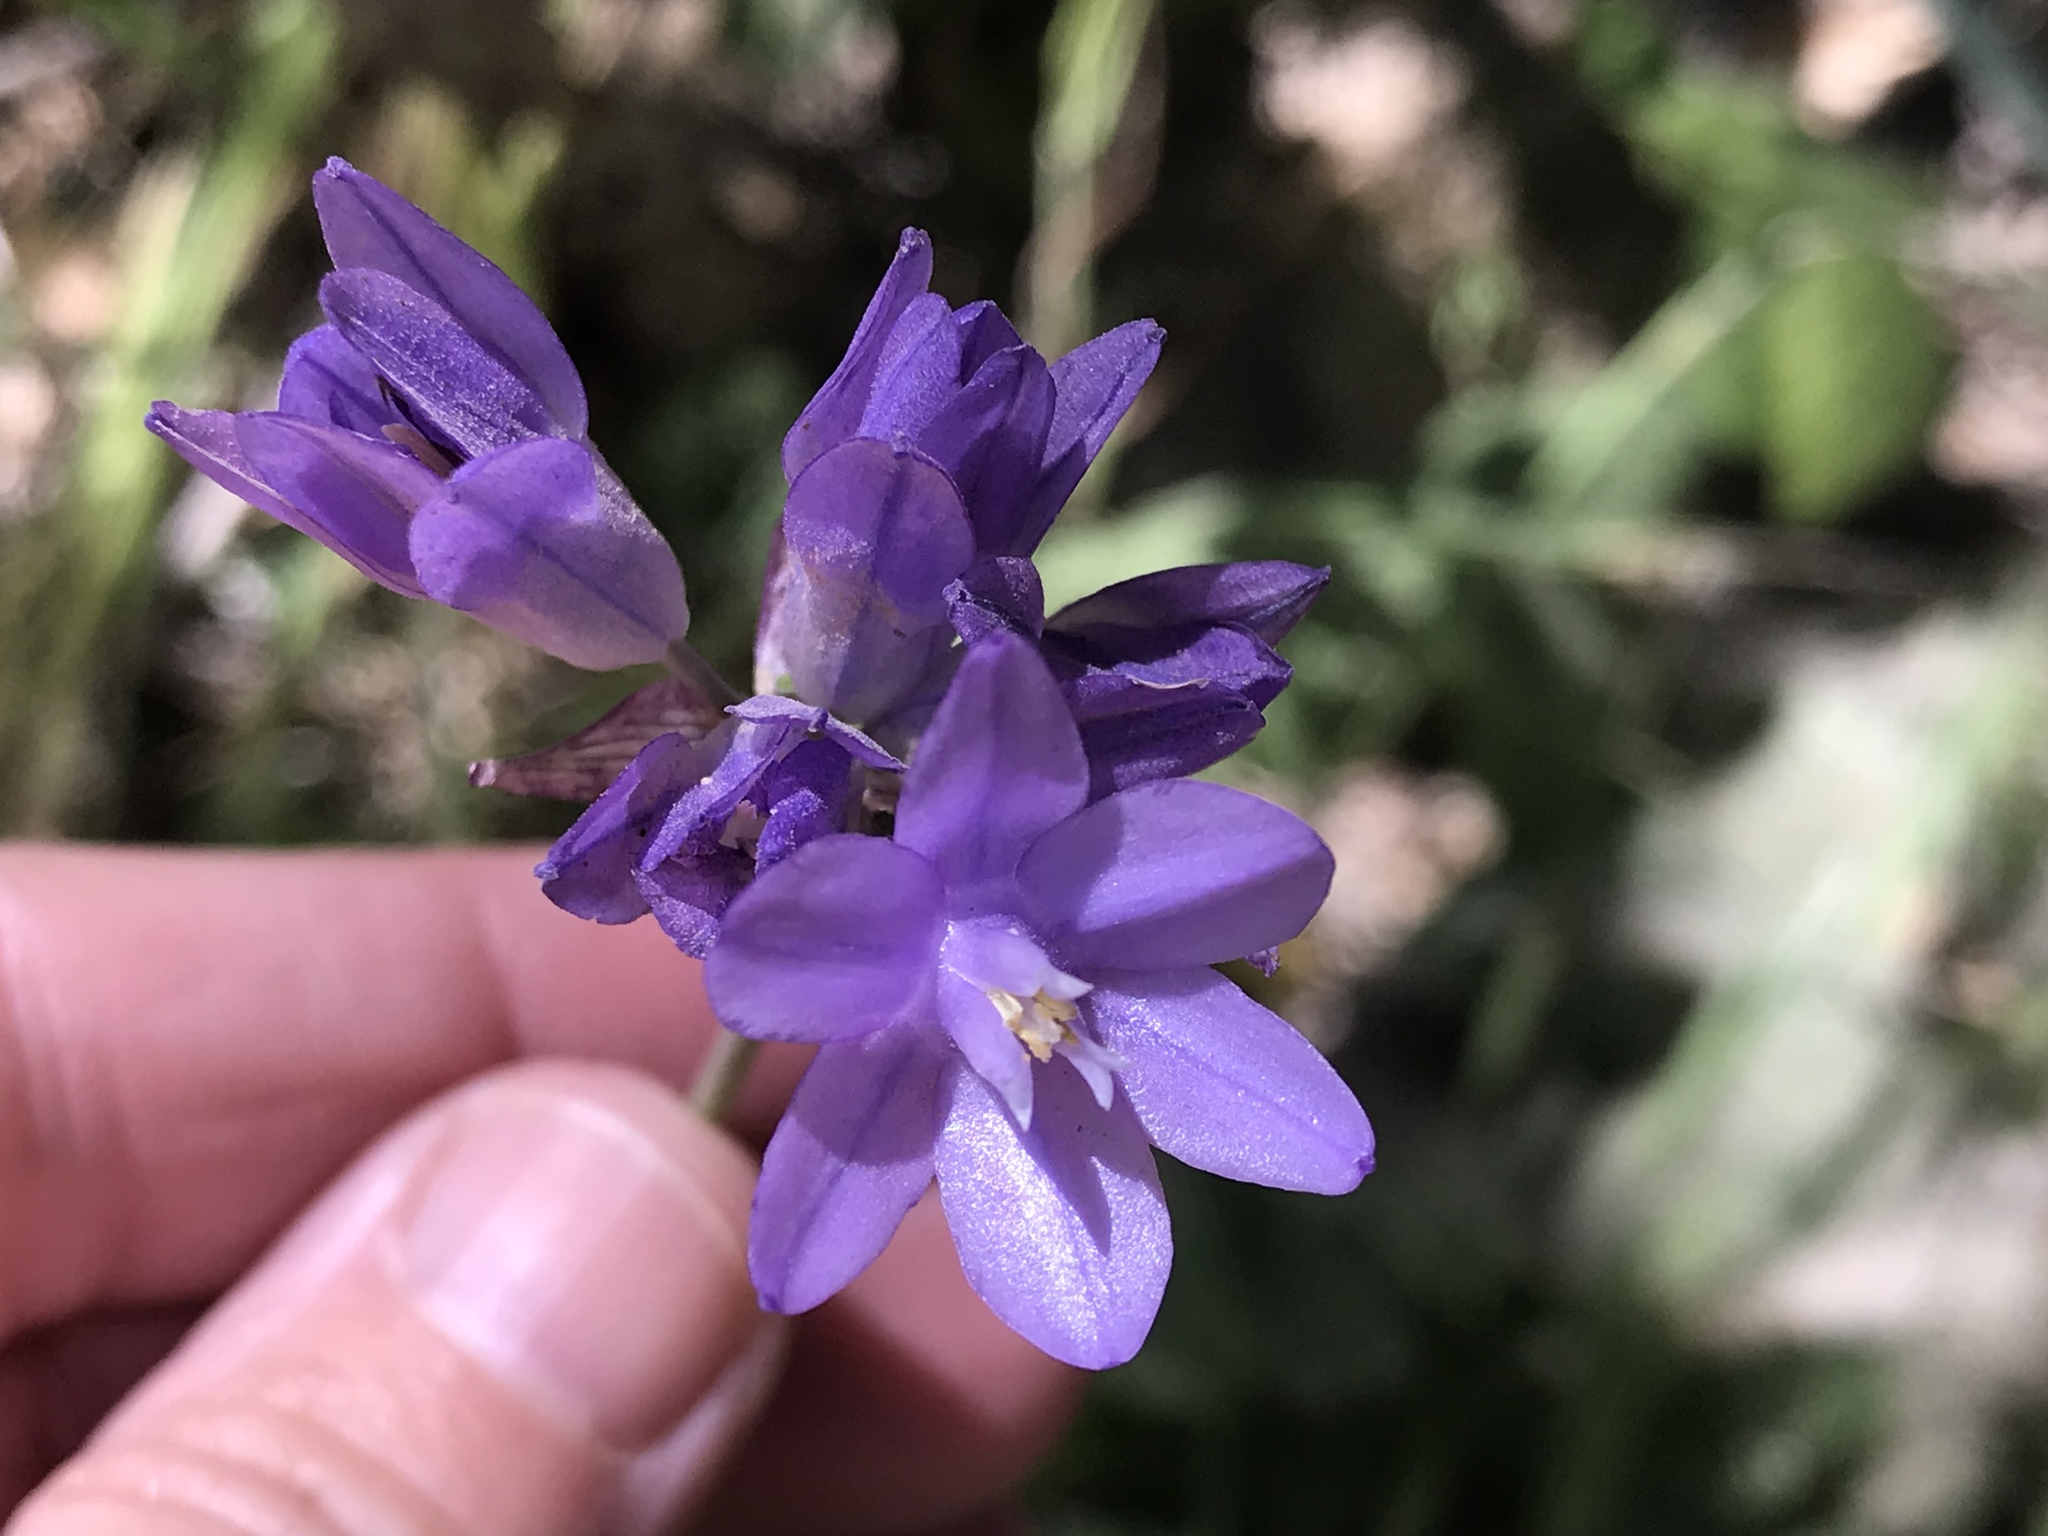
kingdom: Plantae
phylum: Tracheophyta
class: Liliopsida
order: Asparagales
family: Asparagaceae
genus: Dipterostemon
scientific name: Dipterostemon capitatus
